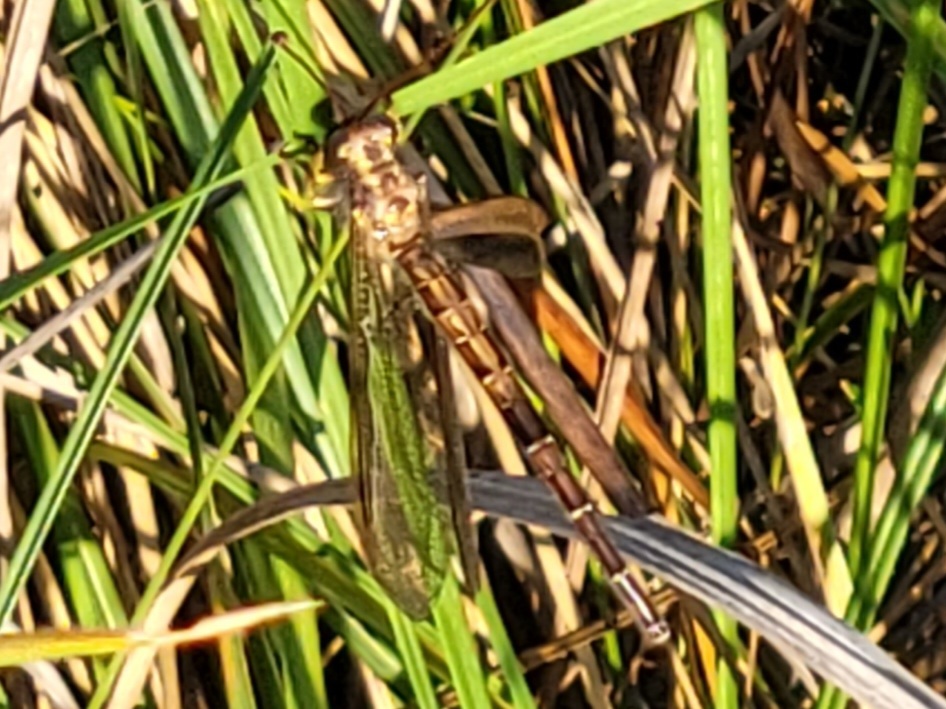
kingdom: Animalia
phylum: Arthropoda
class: Insecta
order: Neuroptera
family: Ascalaphidae
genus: Ascaloptynx
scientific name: Ascaloptynx appendiculata
